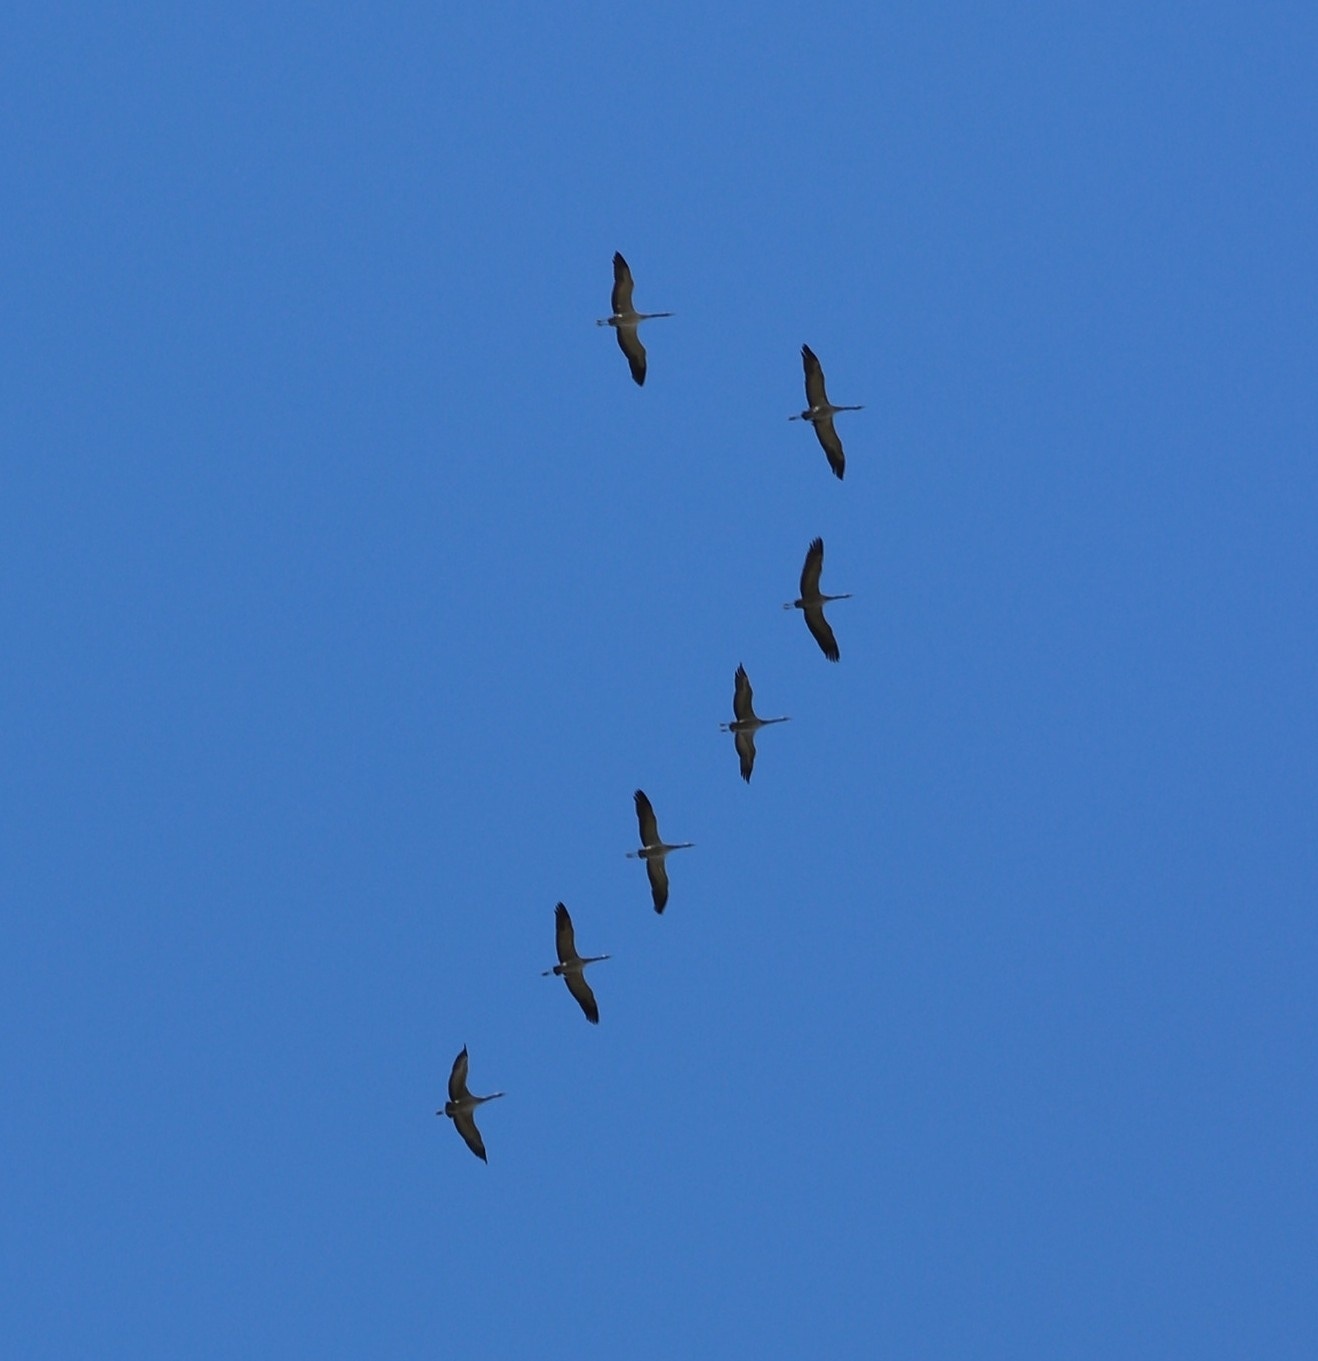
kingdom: Animalia
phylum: Chordata
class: Aves
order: Gruiformes
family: Gruidae
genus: Grus
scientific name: Grus grus
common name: Common crane
